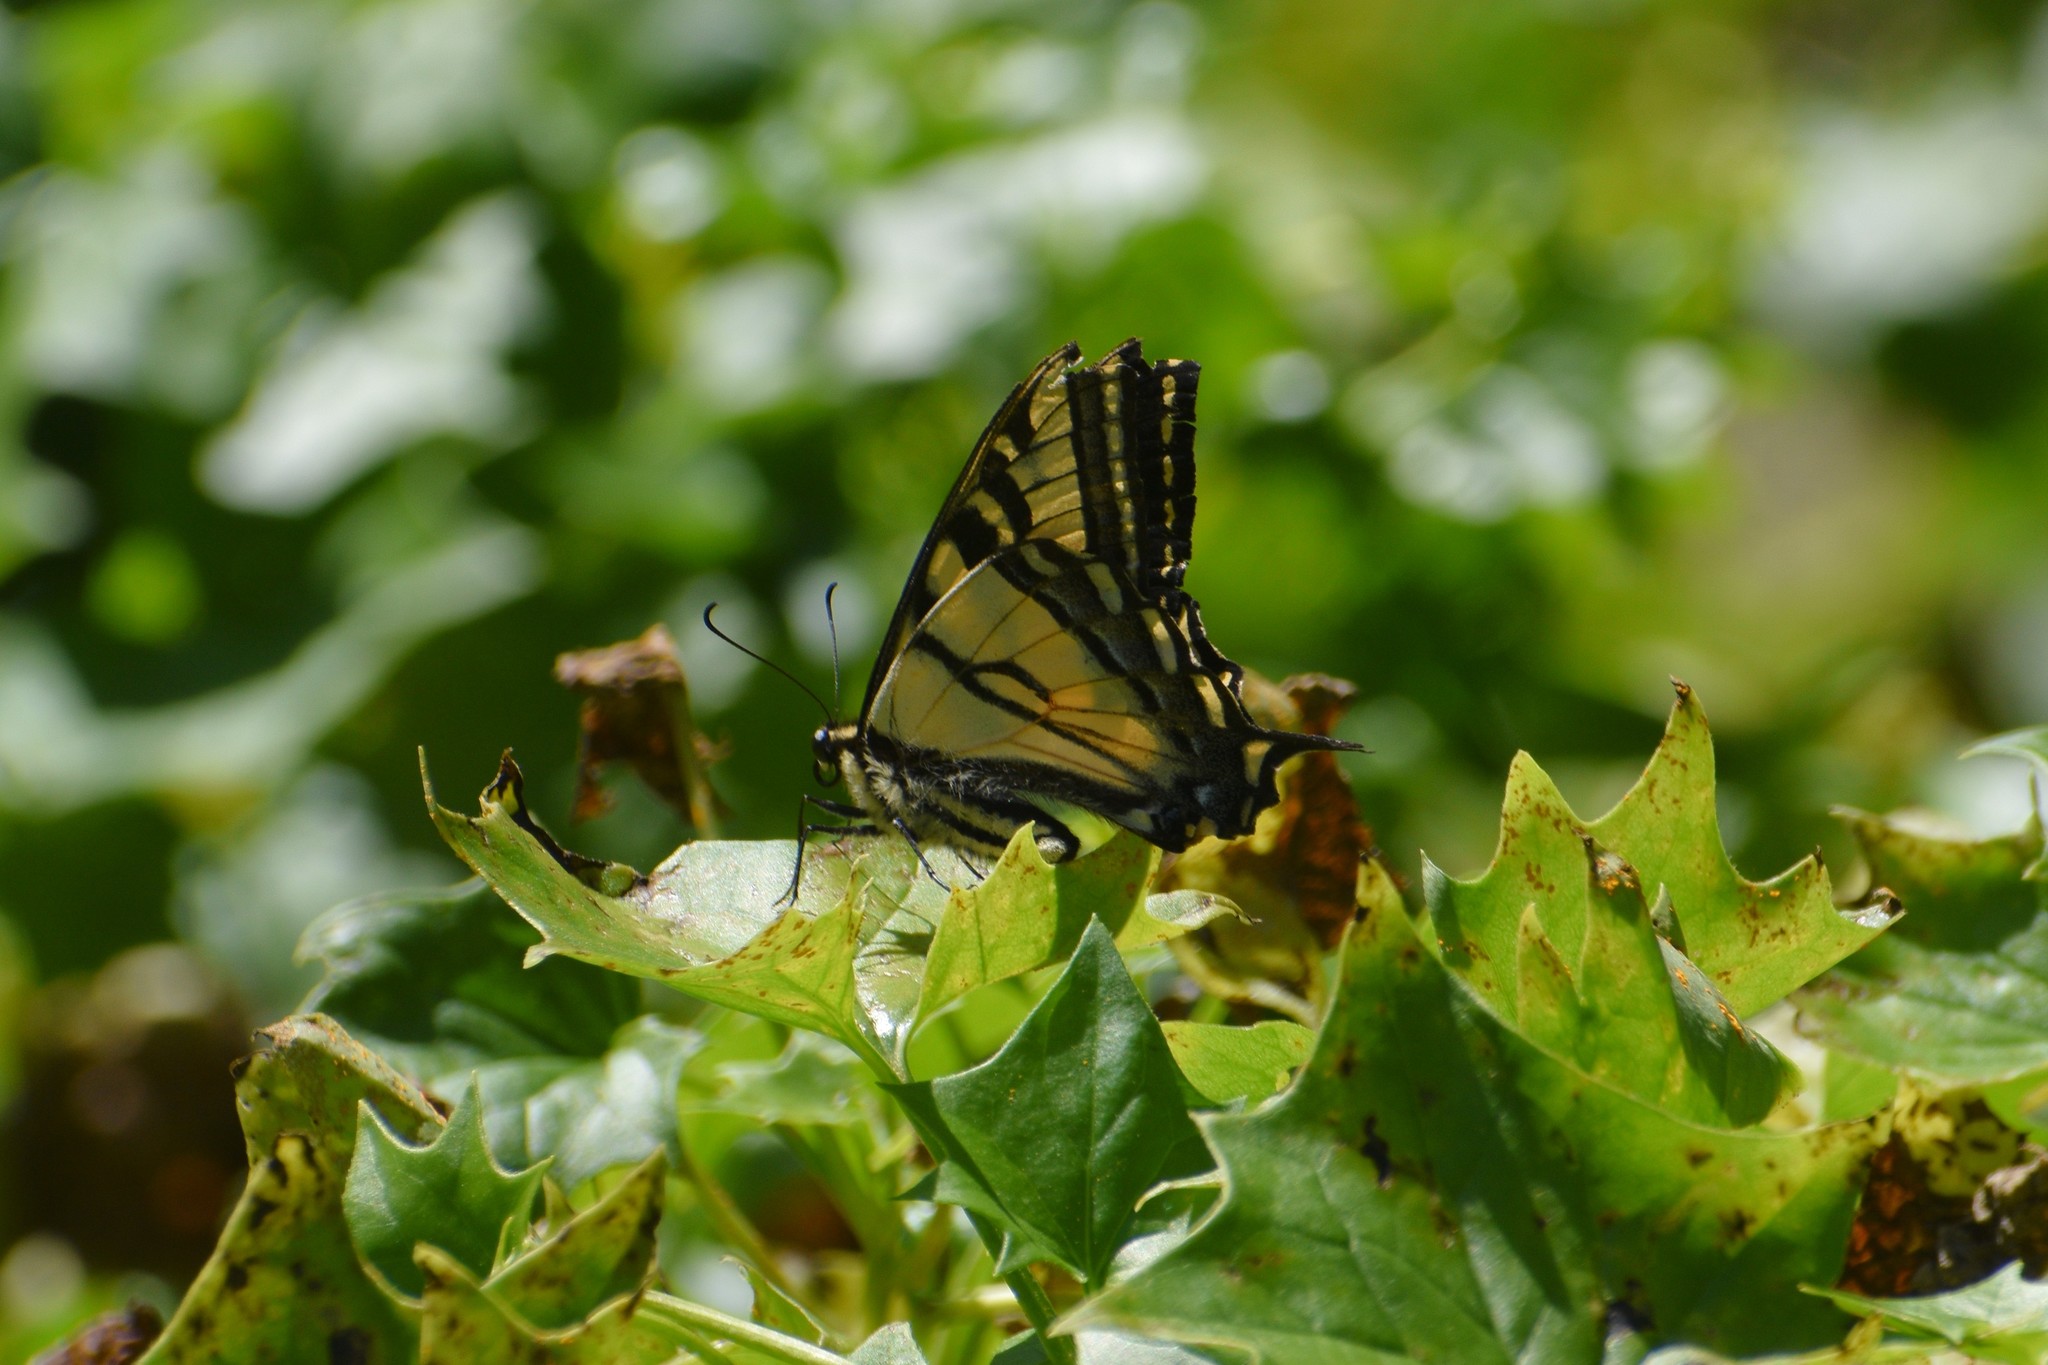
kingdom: Animalia
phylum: Arthropoda
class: Insecta
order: Lepidoptera
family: Papilionidae
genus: Papilio
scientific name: Papilio rutulus
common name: Western tiger swallowtail
